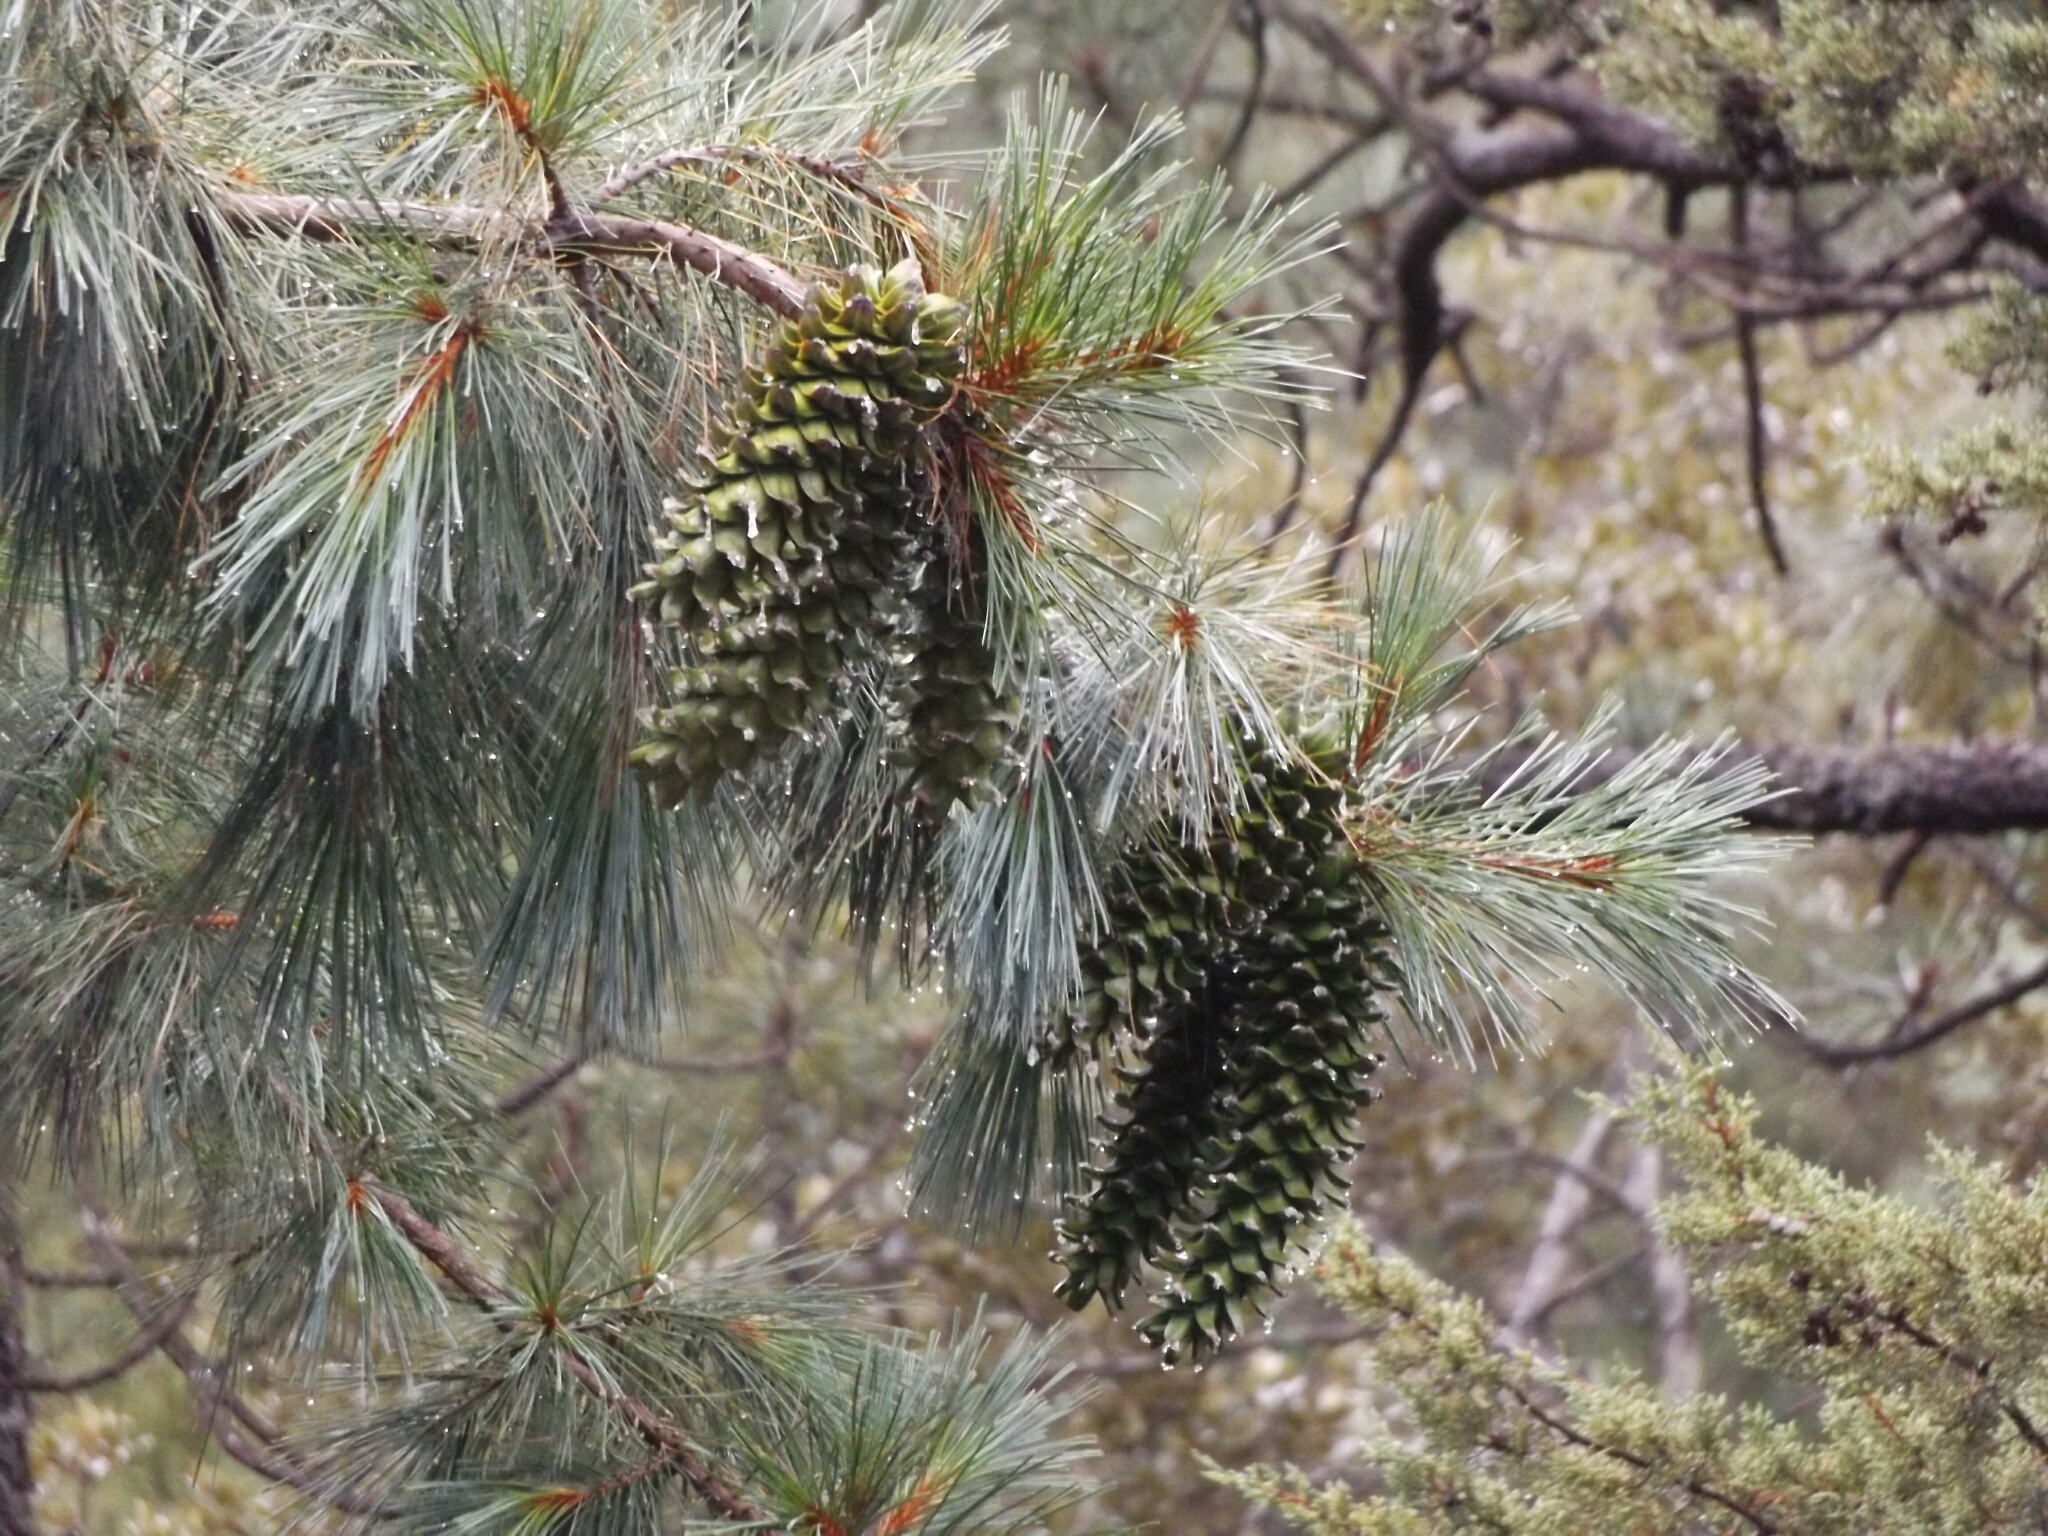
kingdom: Plantae
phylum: Tracheophyta
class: Pinopsida
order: Pinales
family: Pinaceae
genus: Pinus
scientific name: Pinus strobiformis
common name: Southwestern white pine
